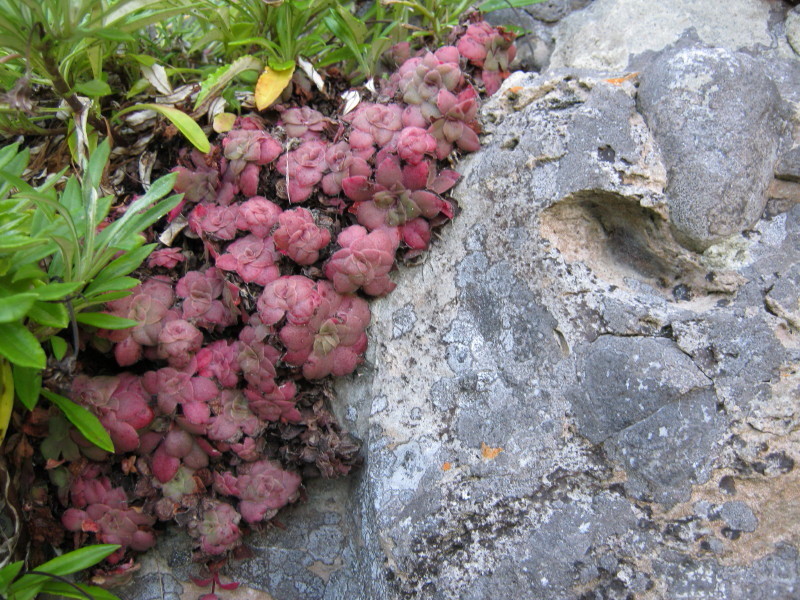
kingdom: Plantae
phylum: Tracheophyta
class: Magnoliopsida
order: Saxifragales
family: Crassulaceae
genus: Crassula
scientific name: Crassula orbicularis
